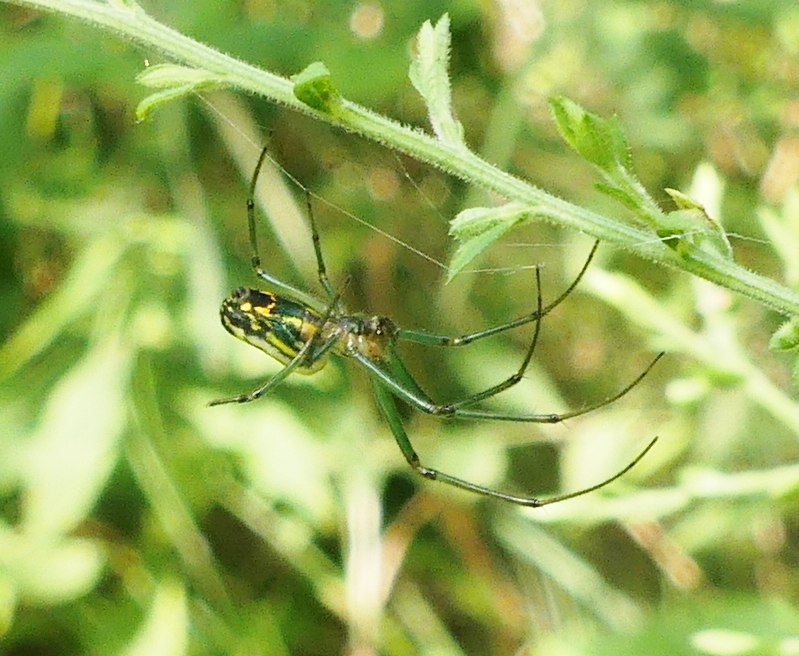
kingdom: Animalia
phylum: Arthropoda
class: Arachnida
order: Araneae
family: Tetragnathidae
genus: Leucauge
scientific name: Leucauge venusta
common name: Longjawed orb weavers
